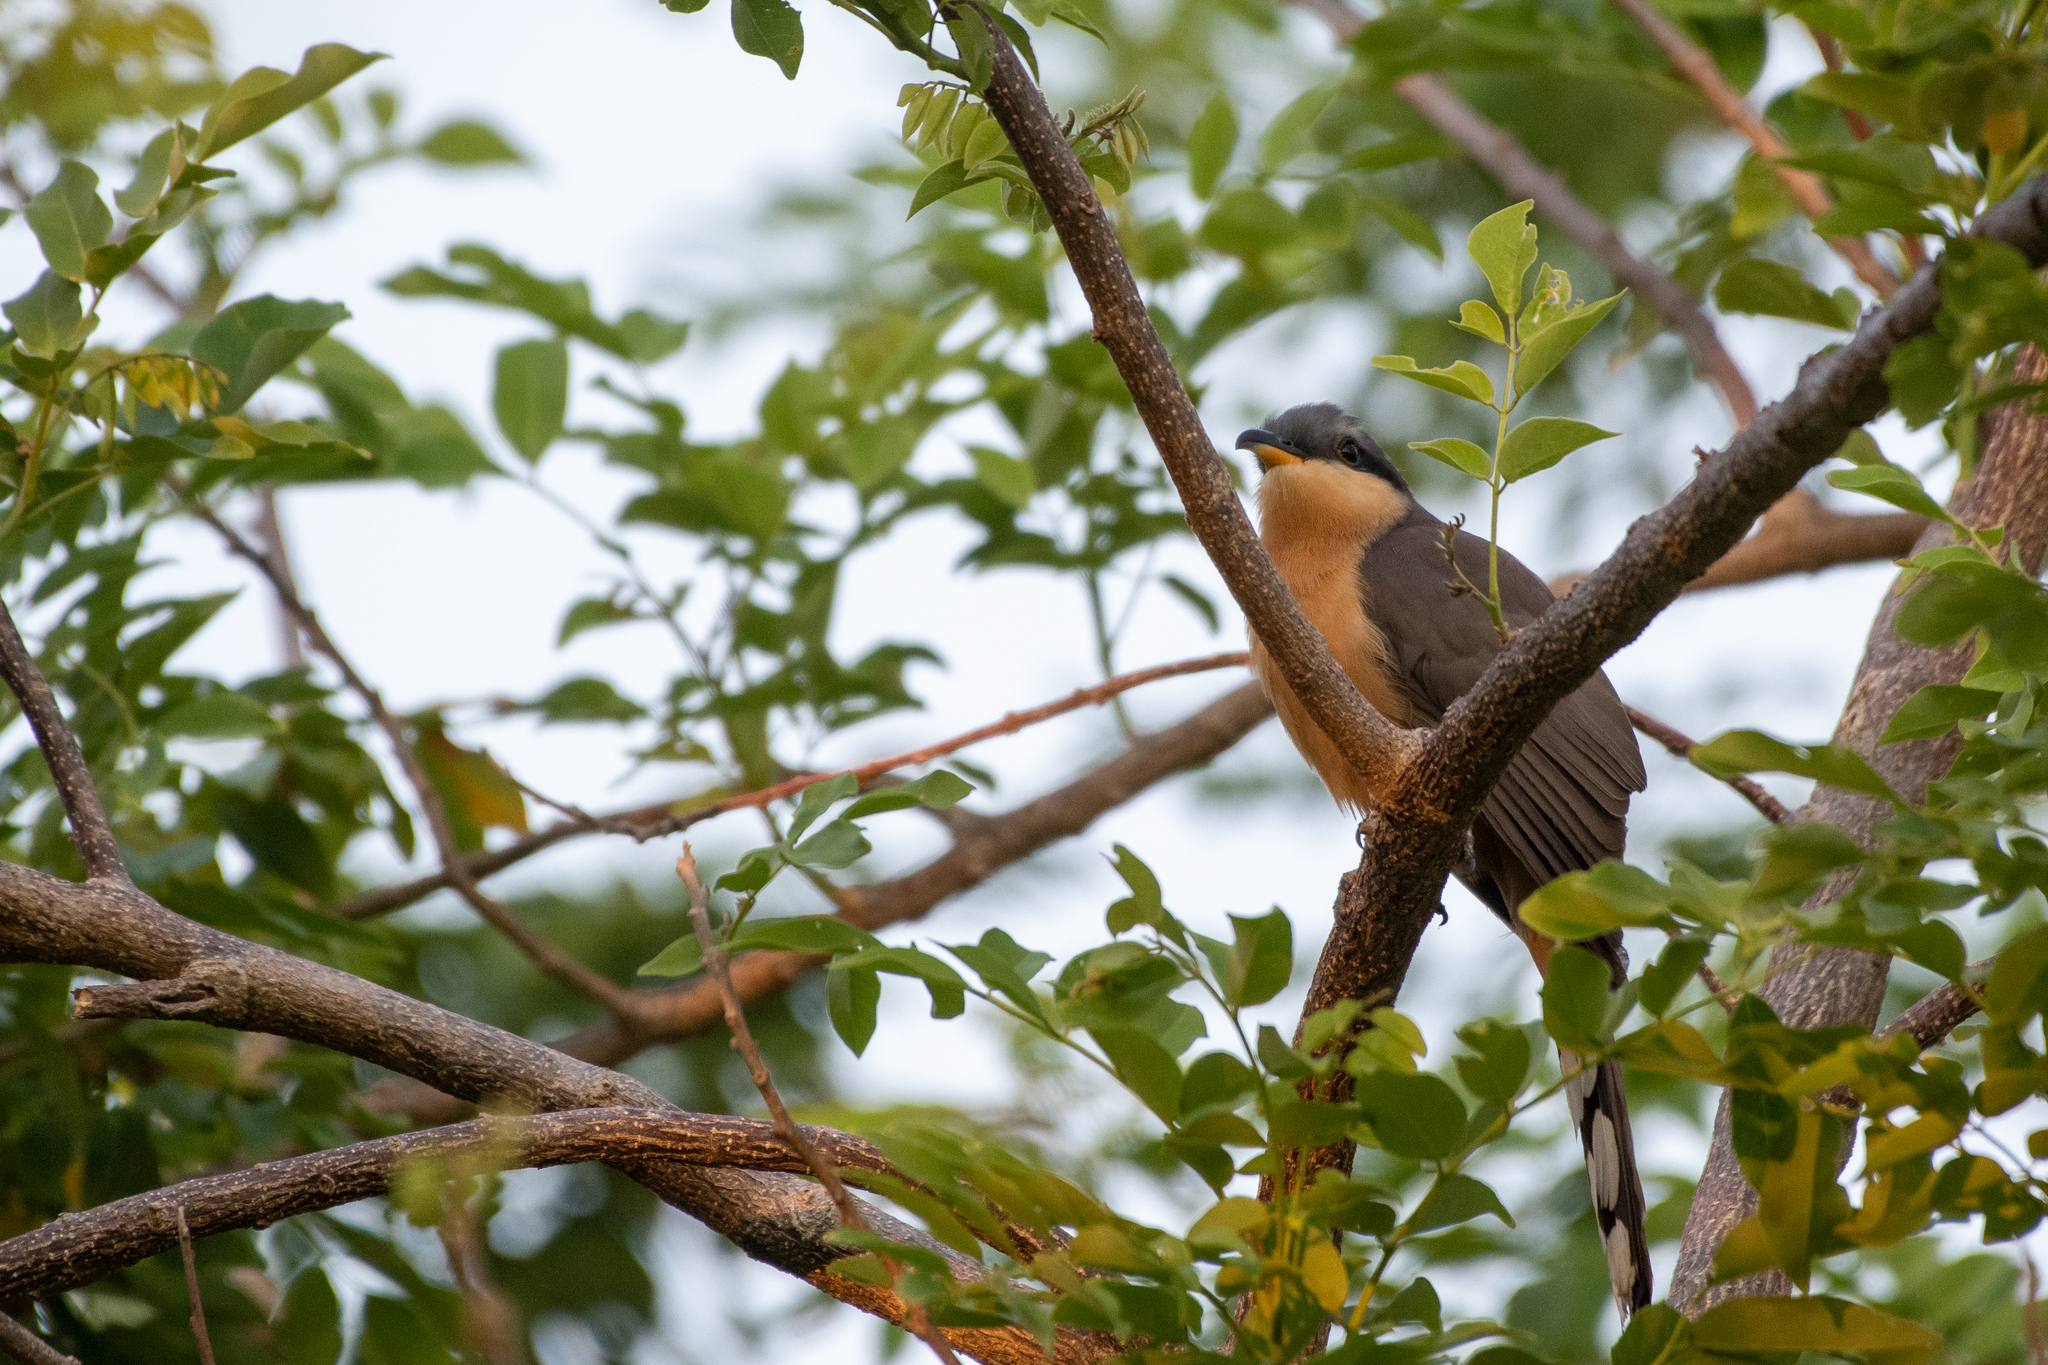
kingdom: Animalia
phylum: Chordata
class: Aves
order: Cuculiformes
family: Cuculidae
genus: Coccyzus
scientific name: Coccyzus minor
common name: Mangrove cuckoo
